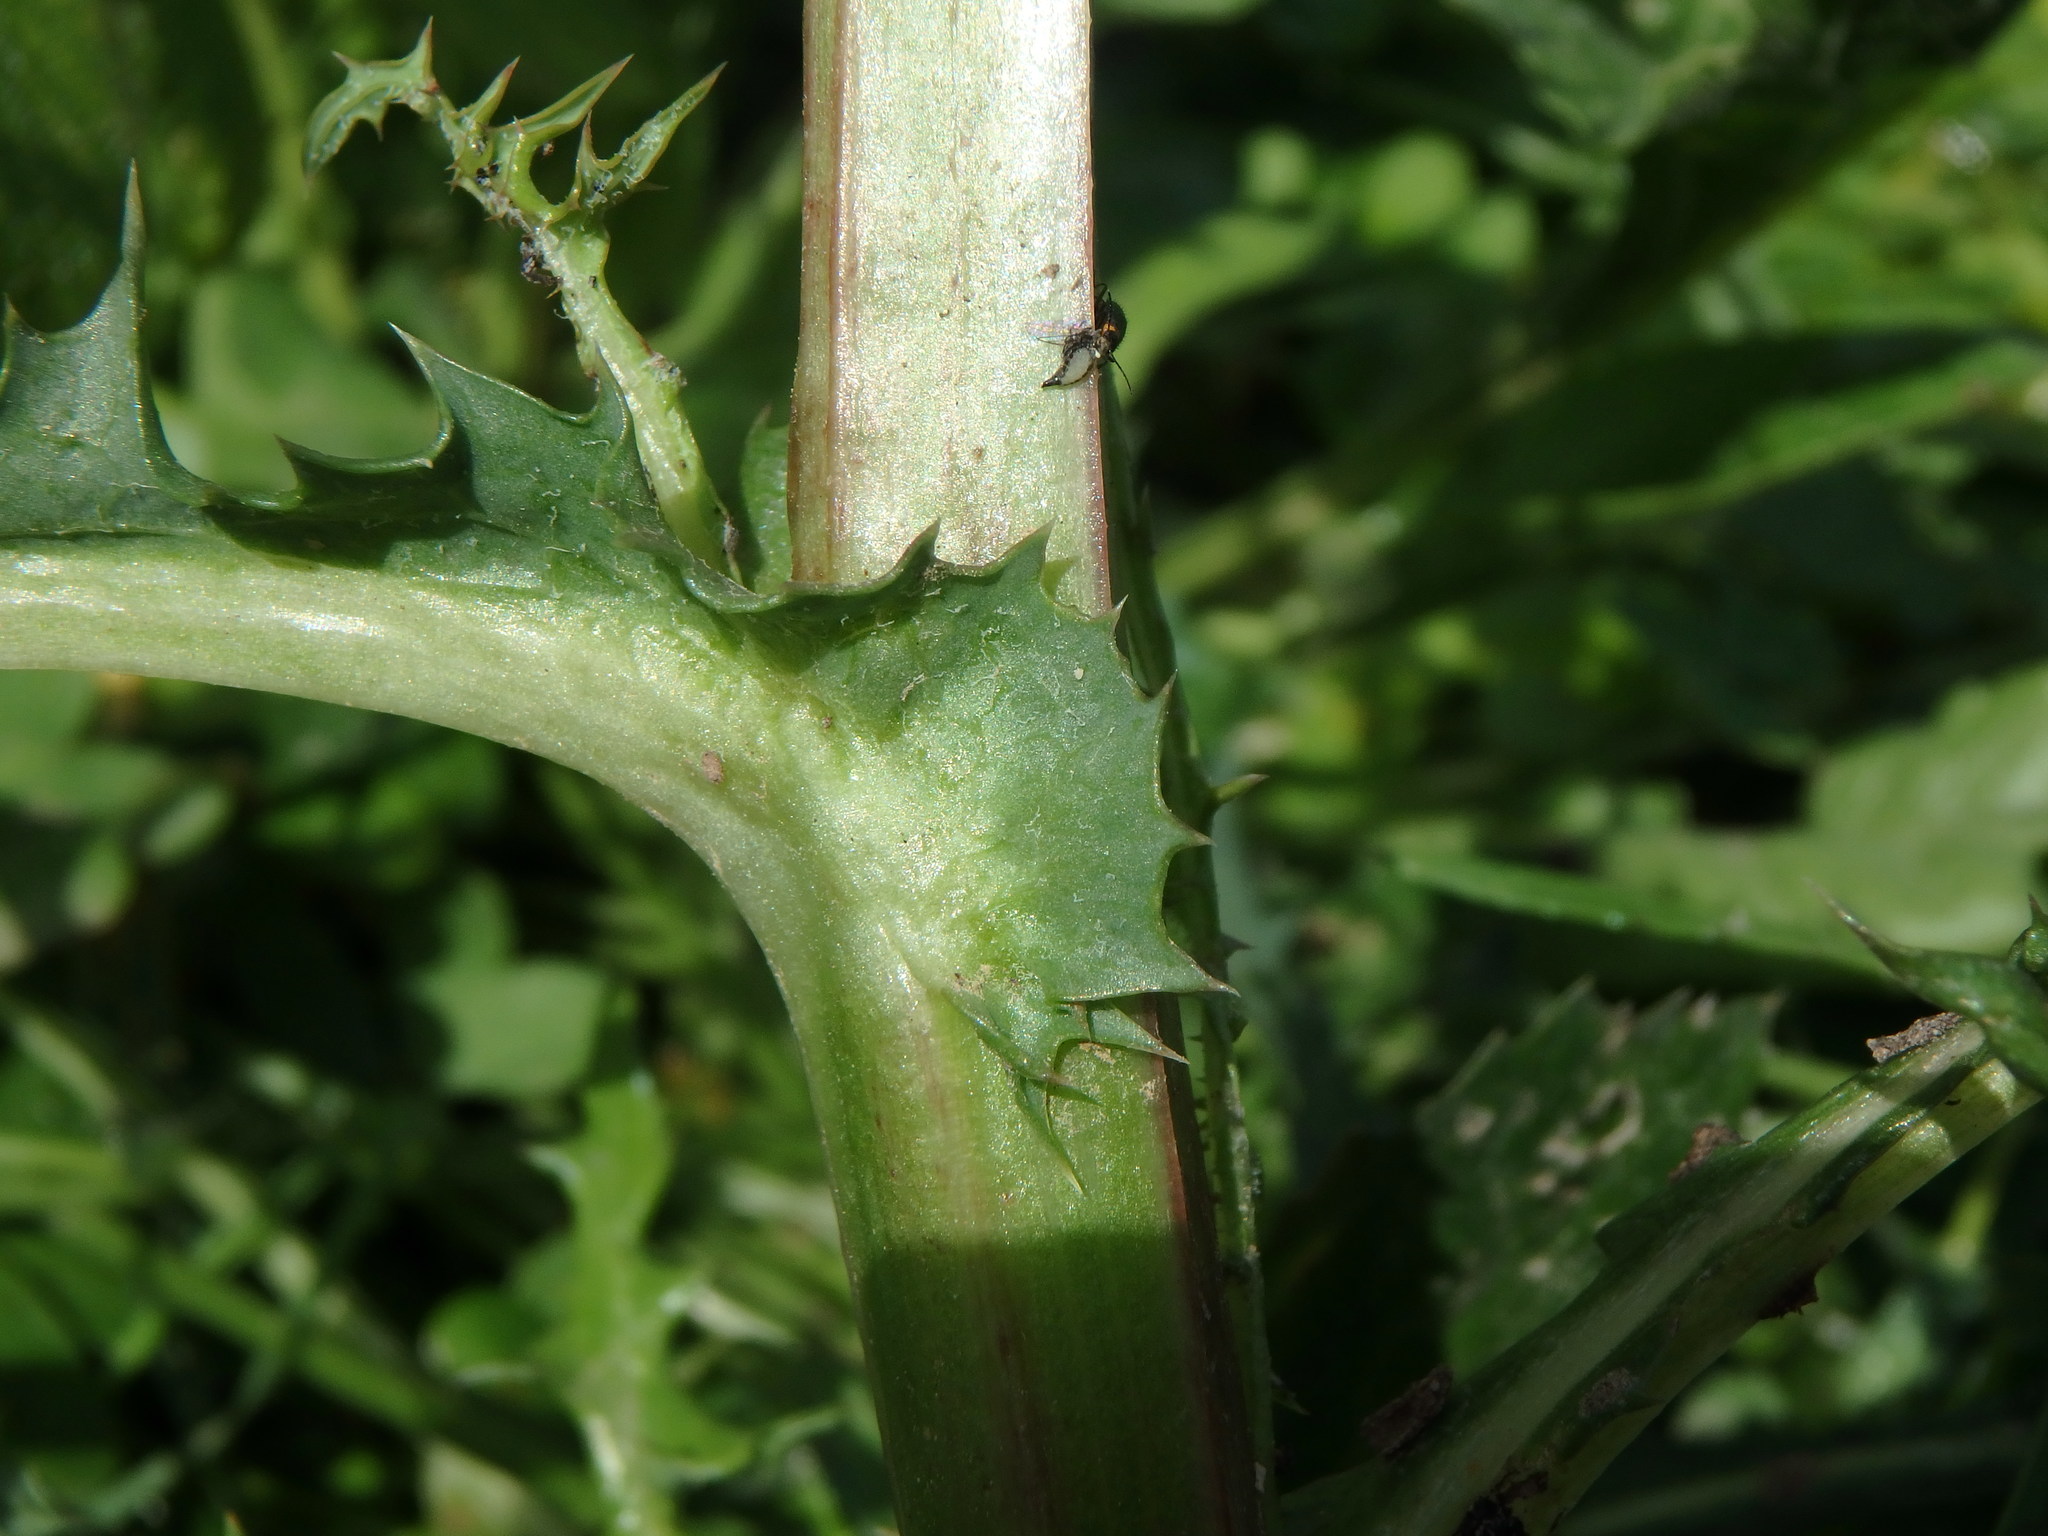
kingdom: Plantae
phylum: Tracheophyta
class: Magnoliopsida
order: Asterales
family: Asteraceae
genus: Sonchus
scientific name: Sonchus asper
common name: Prickly sow-thistle
